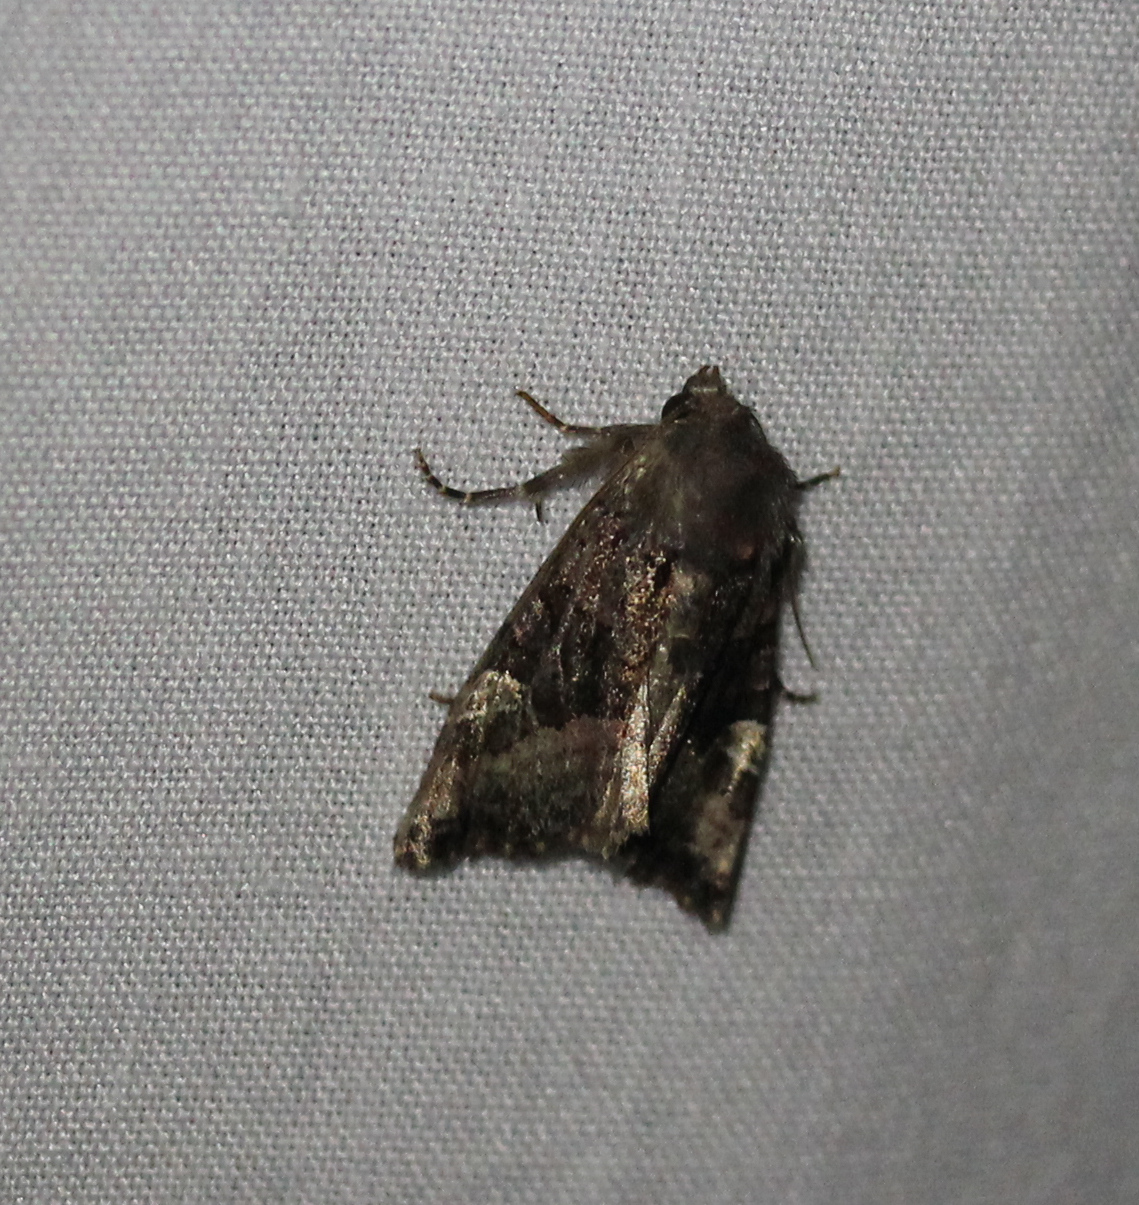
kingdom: Animalia
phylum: Arthropoda
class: Insecta
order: Lepidoptera
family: Noctuidae
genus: Euplexia
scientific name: Euplexia benesimilis
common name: American angle shades
